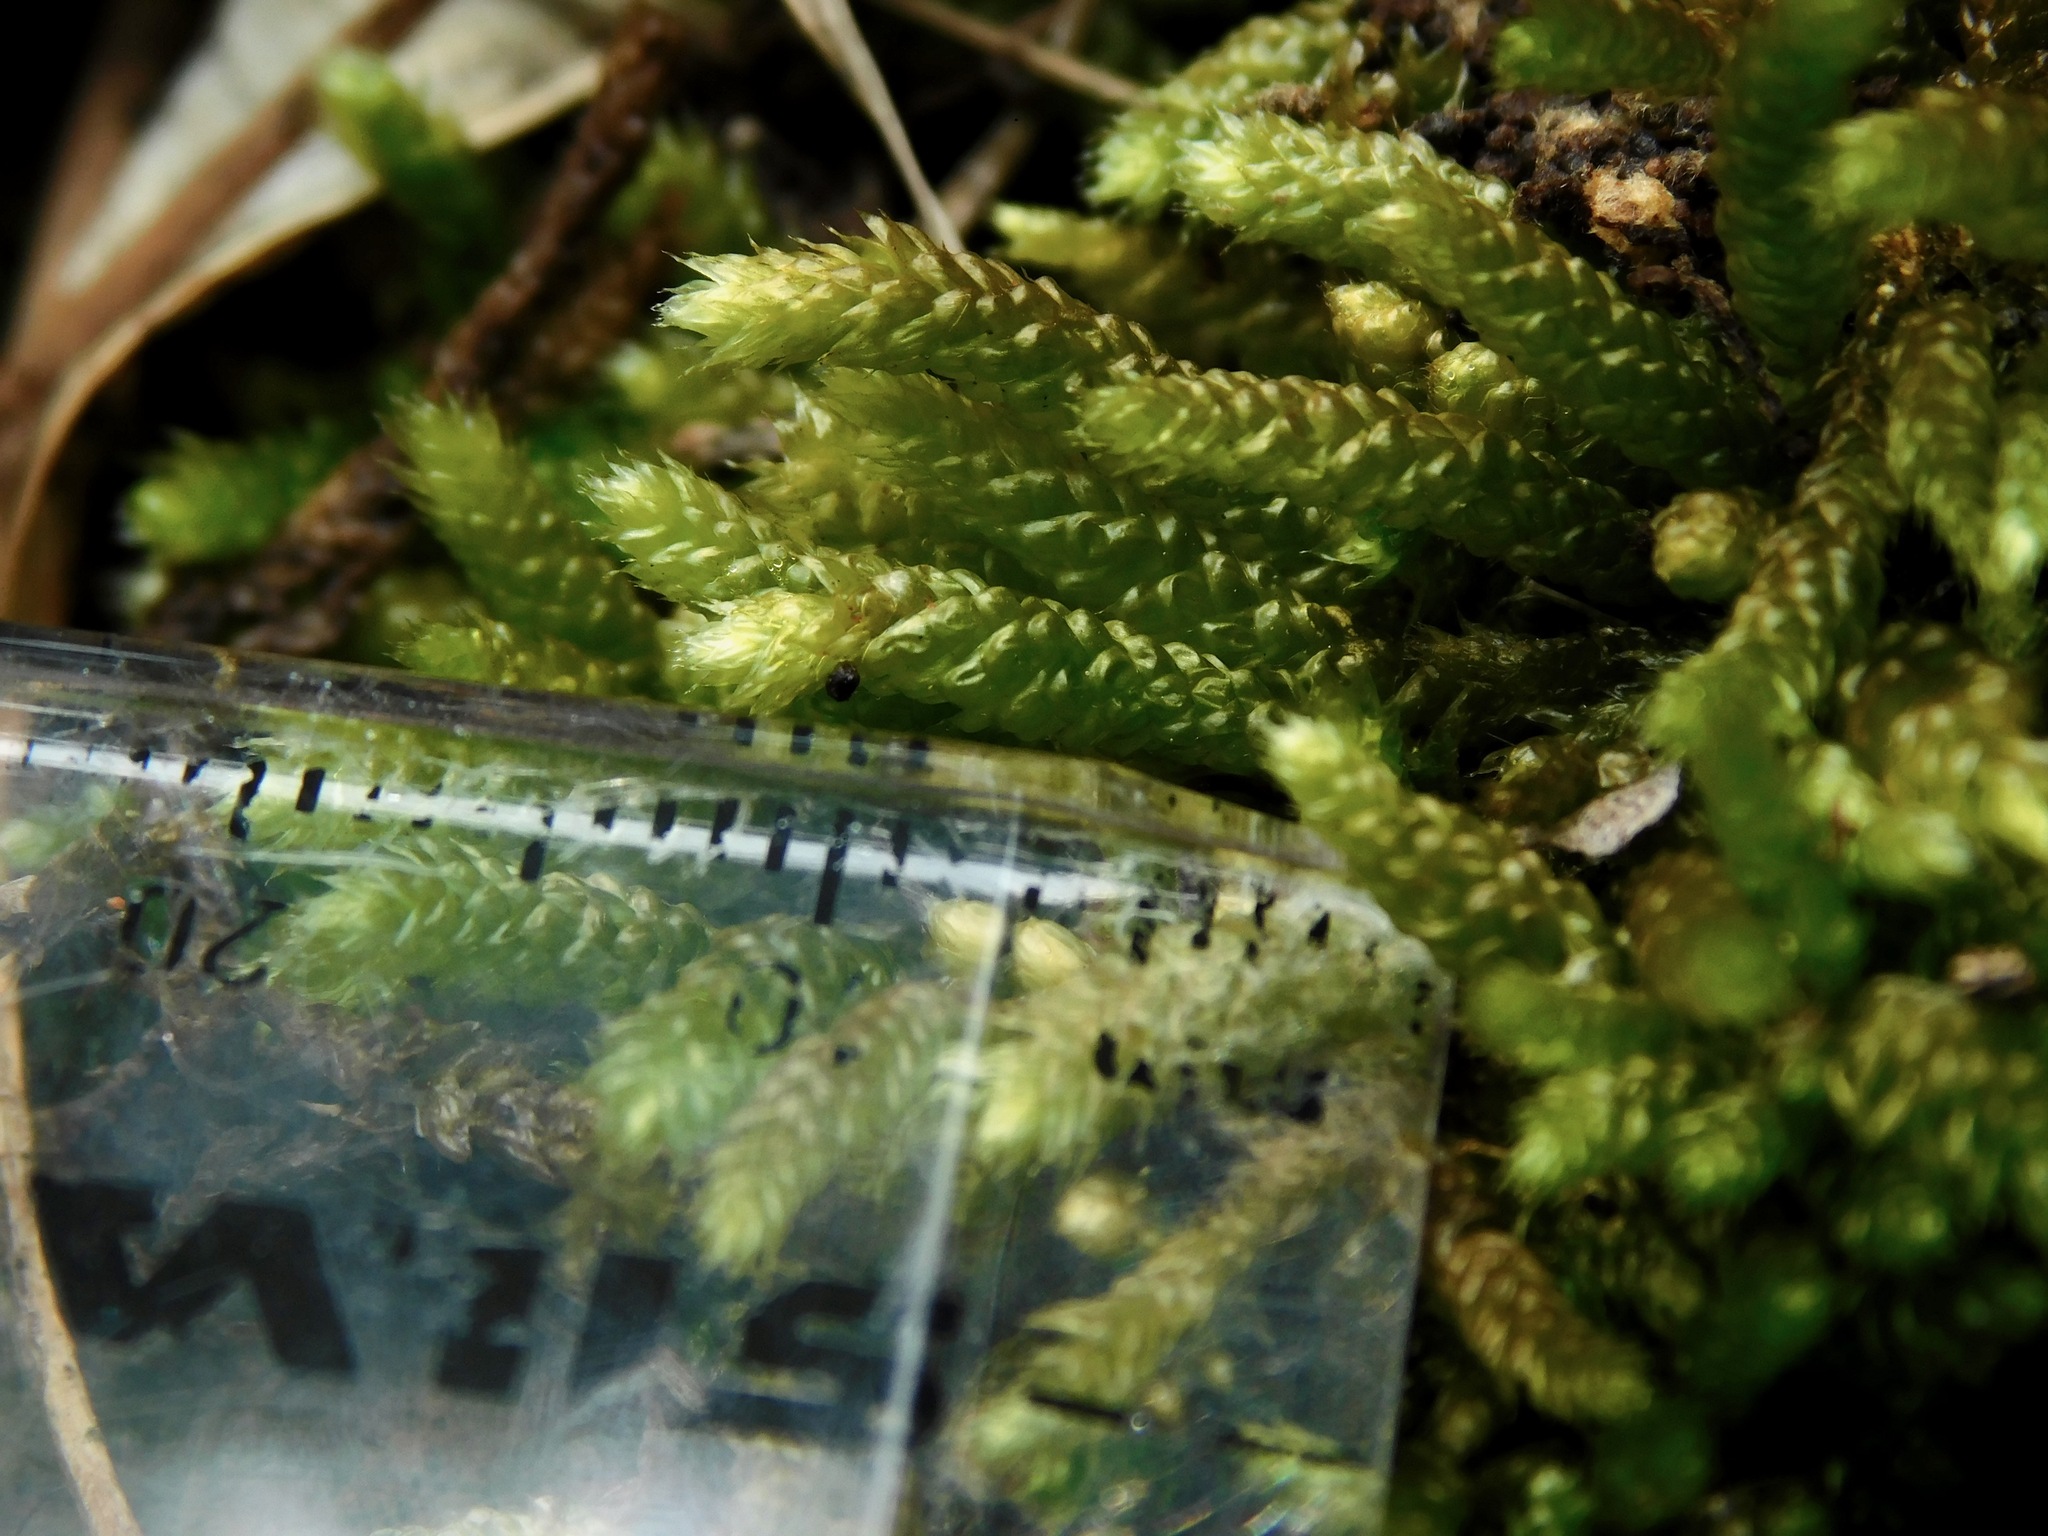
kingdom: Plantae
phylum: Bryophyta
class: Bryopsida
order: Hypnales
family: Brachytheciaceae
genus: Bryoandersonia
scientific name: Bryoandersonia illecebra
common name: Spoon-leaved moss
